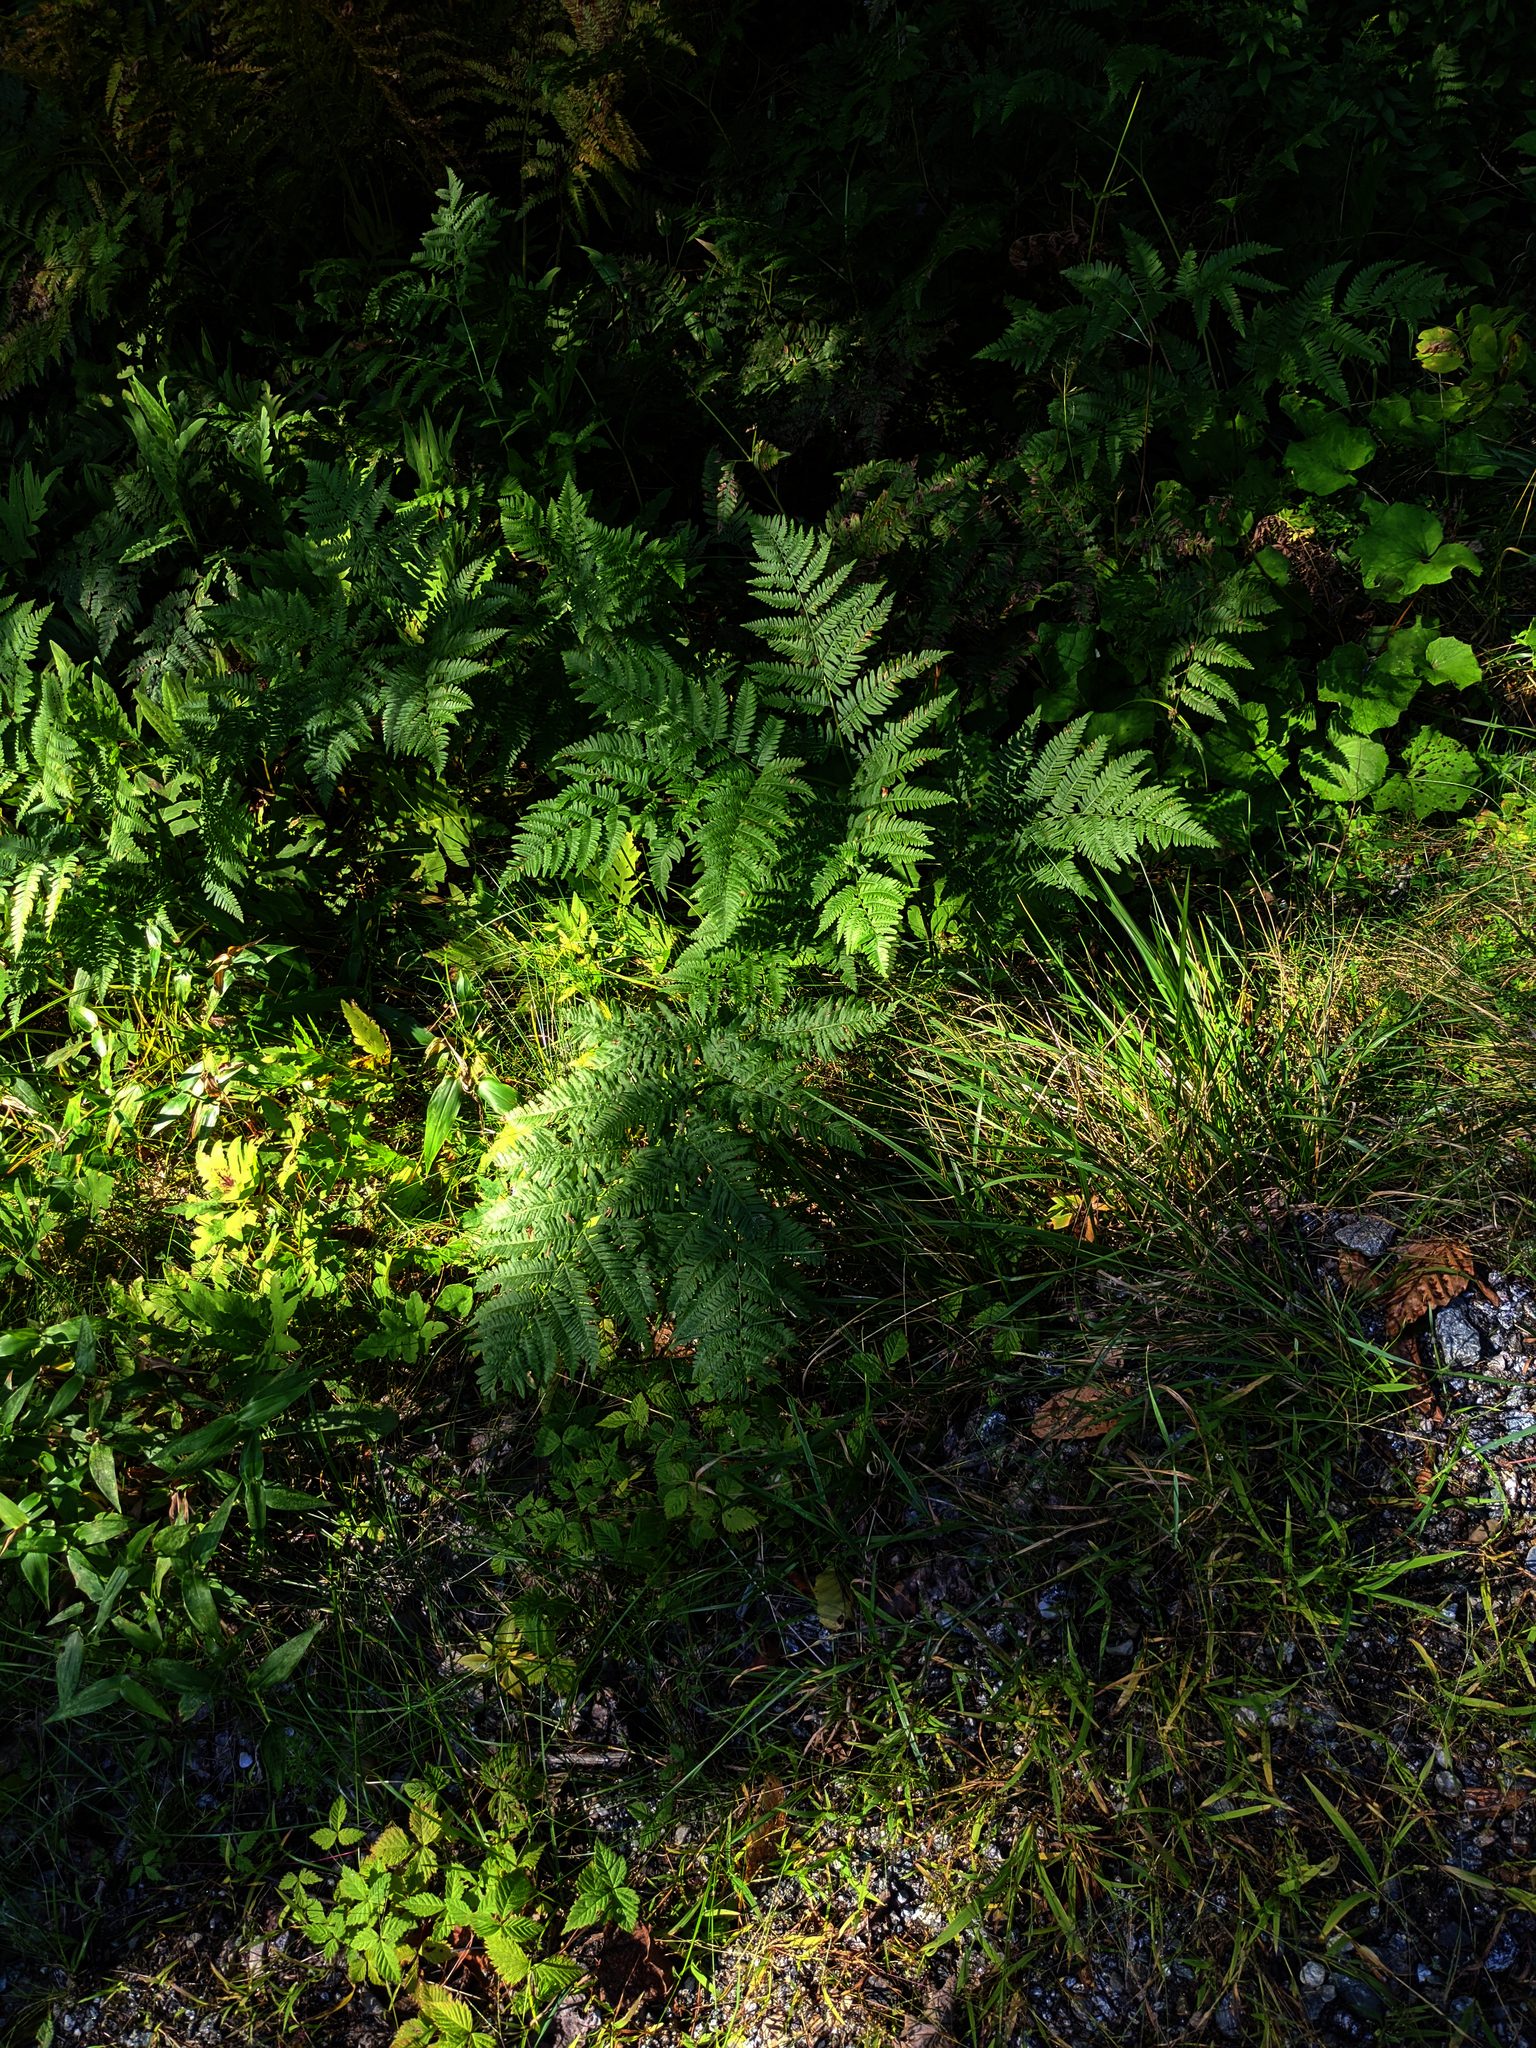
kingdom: Plantae
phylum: Tracheophyta
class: Polypodiopsida
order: Polypodiales
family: Dennstaedtiaceae
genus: Pteridium
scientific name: Pteridium aquilinum
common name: Bracken
